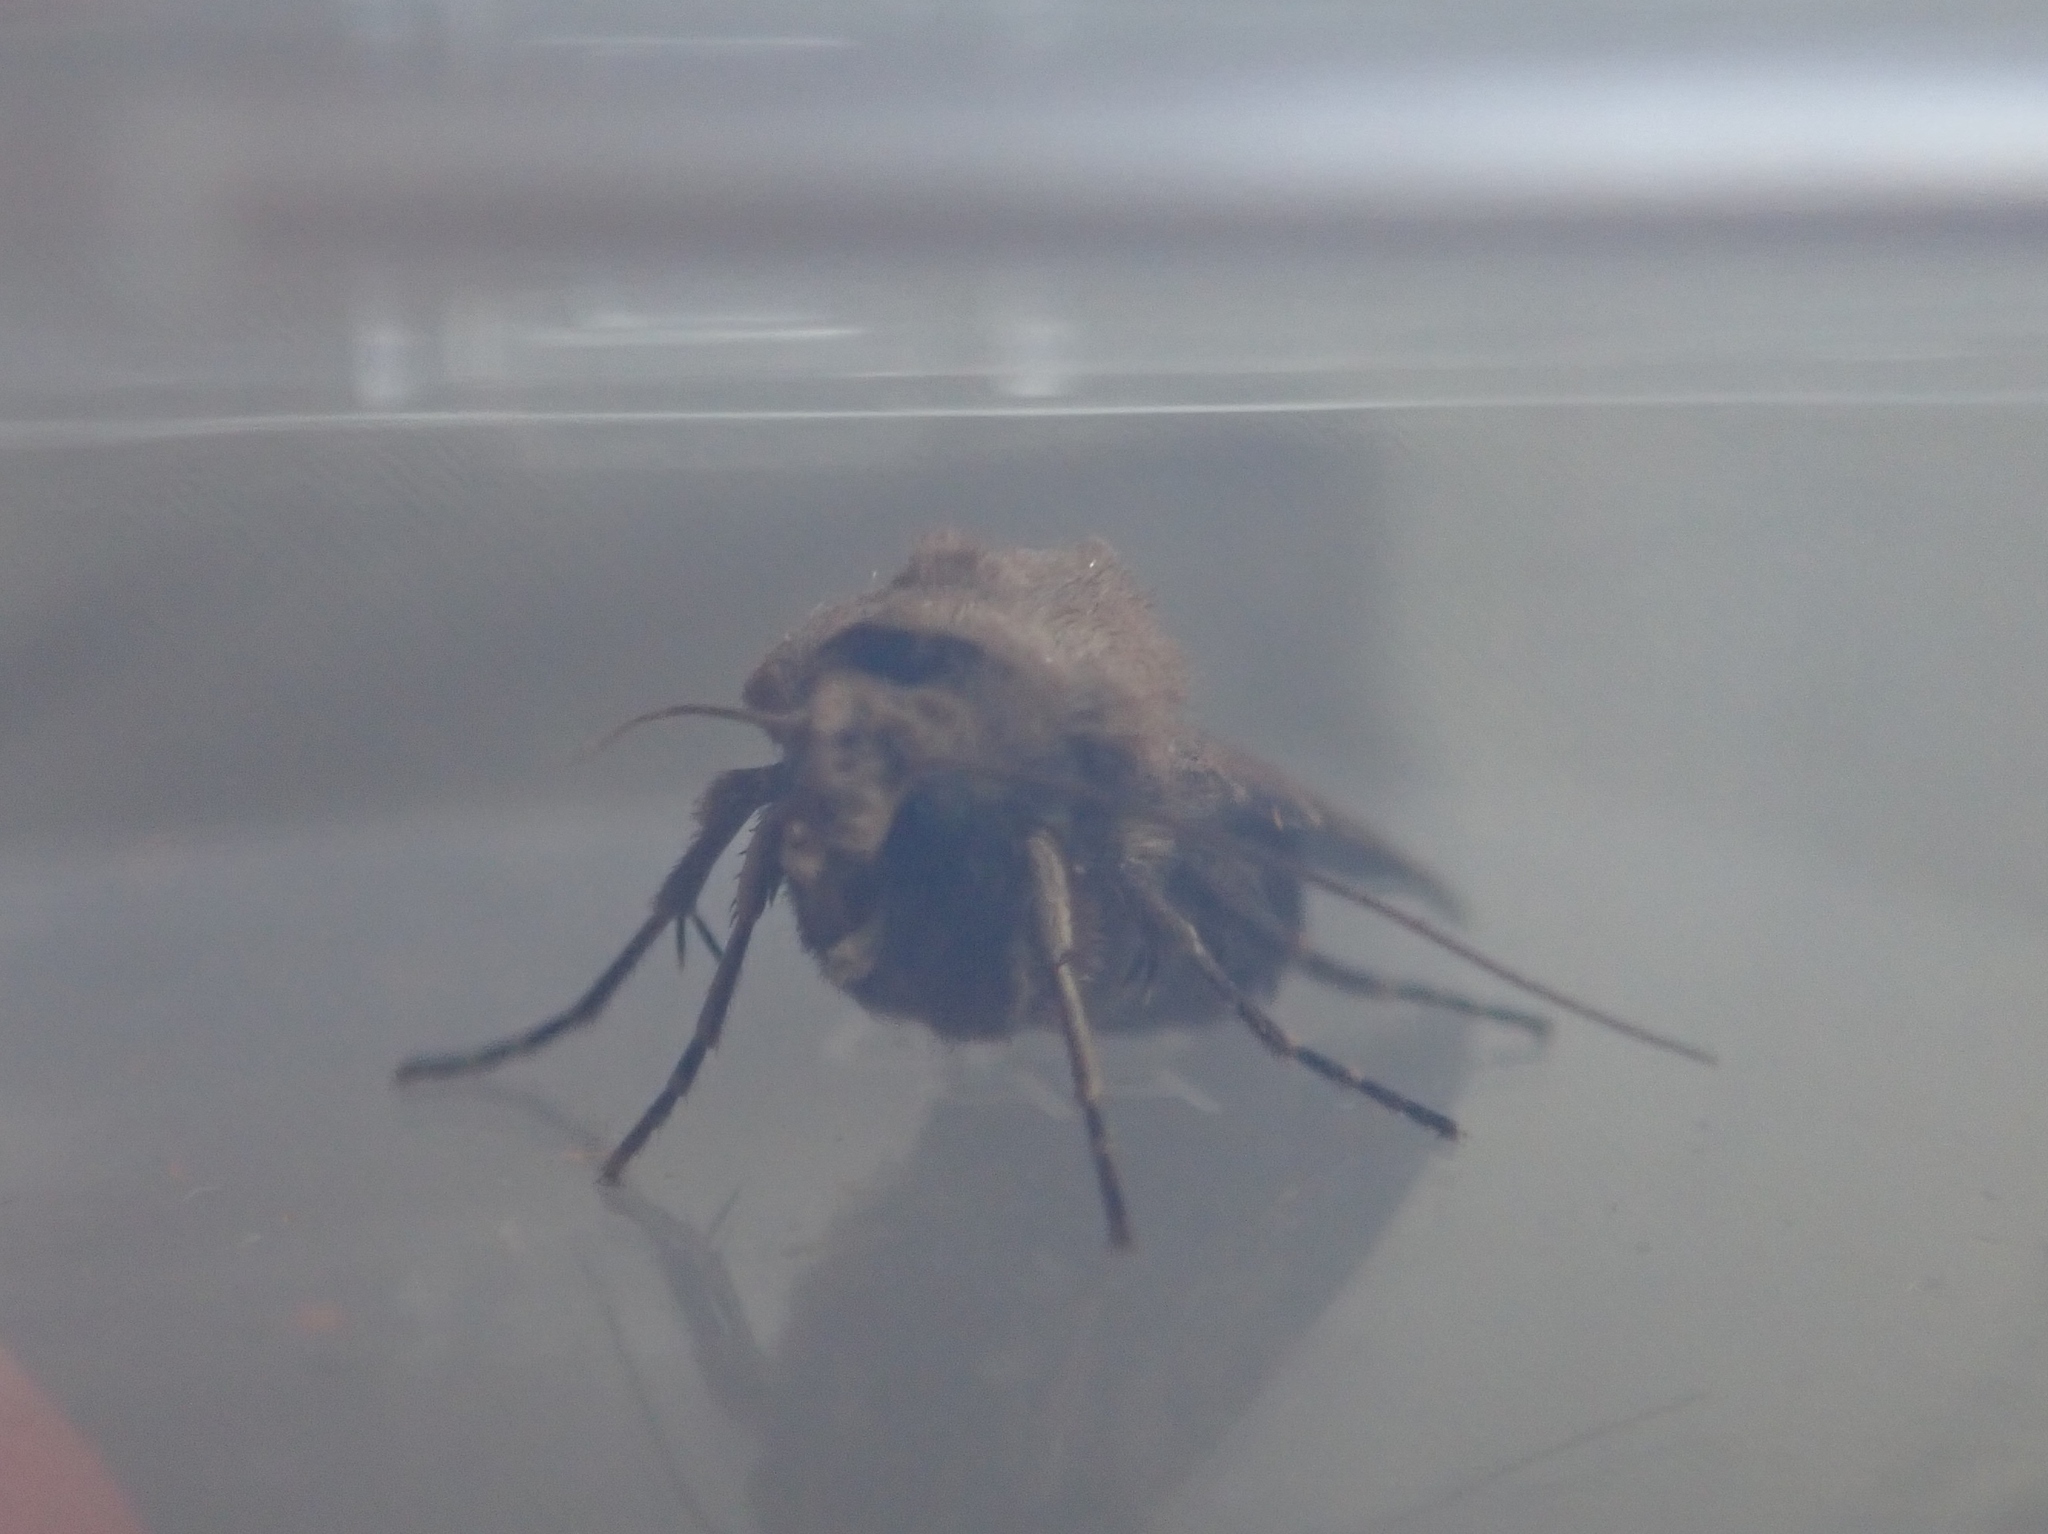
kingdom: Animalia
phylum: Arthropoda
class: Insecta
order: Lepidoptera
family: Noctuidae
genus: Agrotis
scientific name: Agrotis exclamationis
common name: Heart and dart
